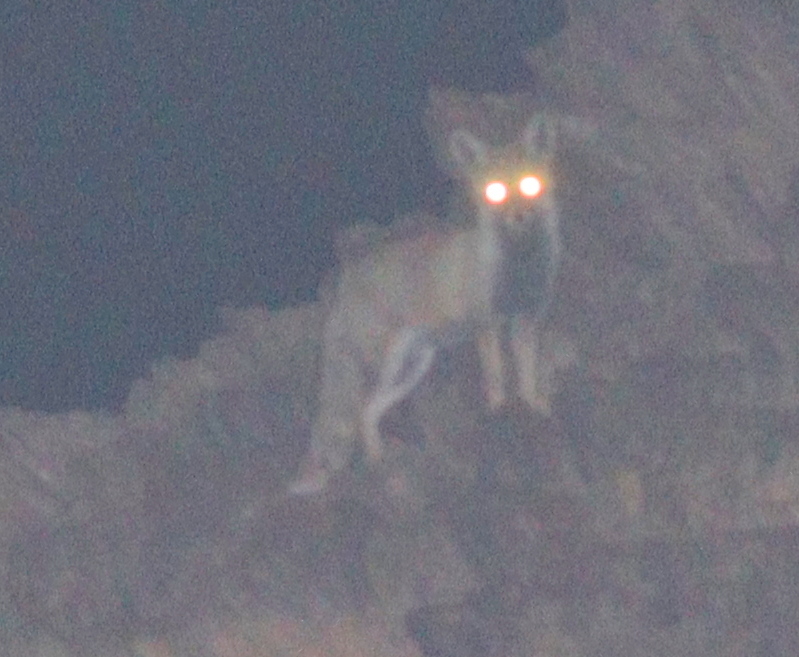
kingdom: Animalia
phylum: Chordata
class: Mammalia
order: Carnivora
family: Canidae
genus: Vulpes
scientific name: Vulpes vulpes
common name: Red fox
